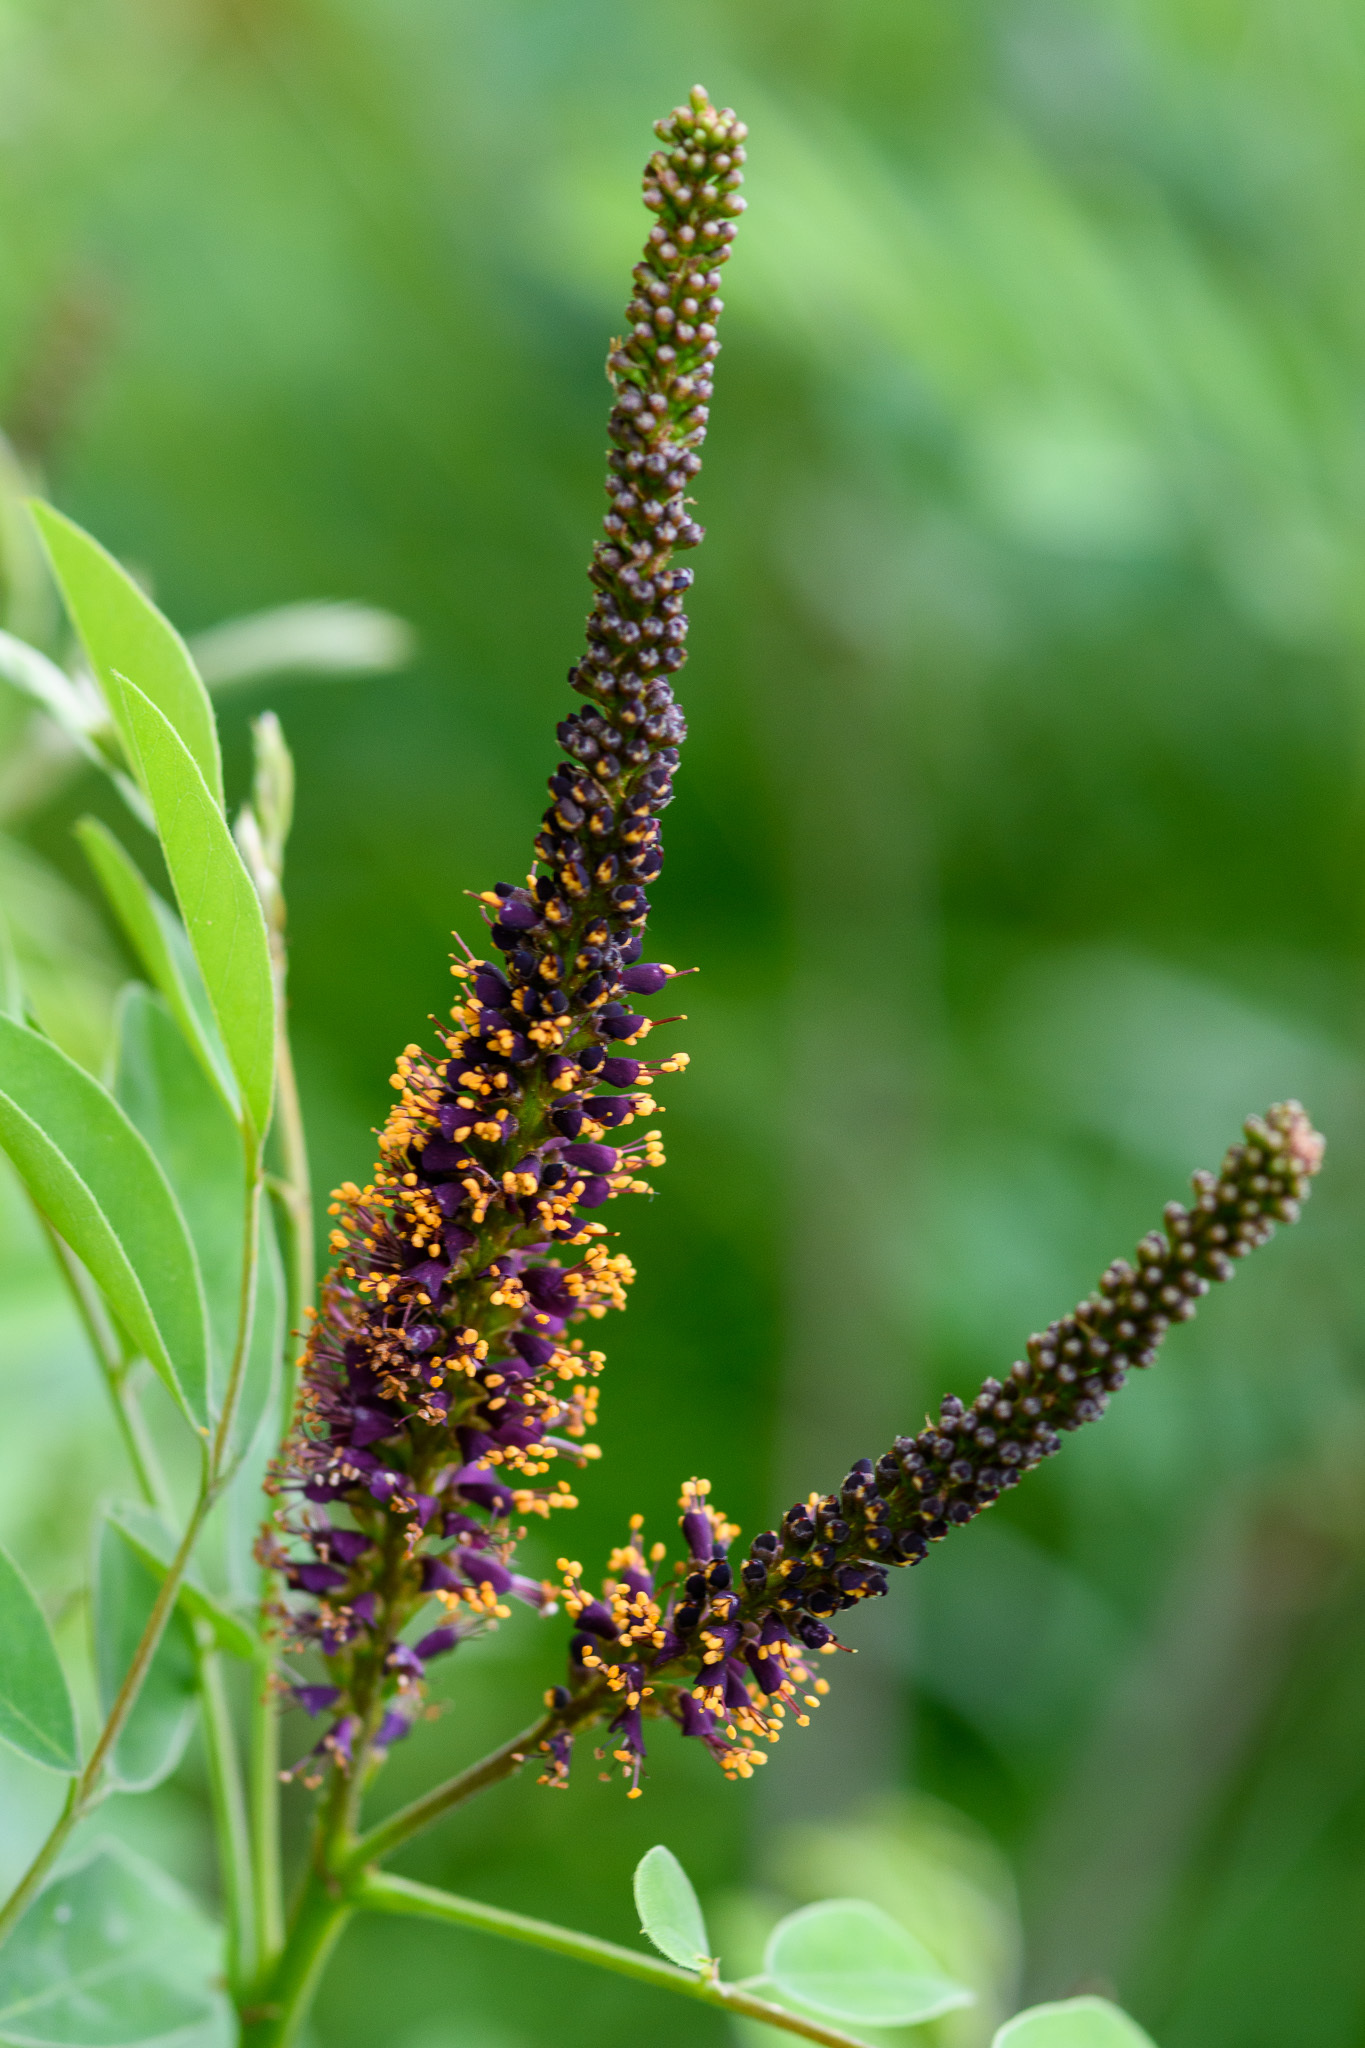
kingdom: Plantae
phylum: Tracheophyta
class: Magnoliopsida
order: Fabales
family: Fabaceae
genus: Amorpha
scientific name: Amorpha fruticosa
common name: False indigo
